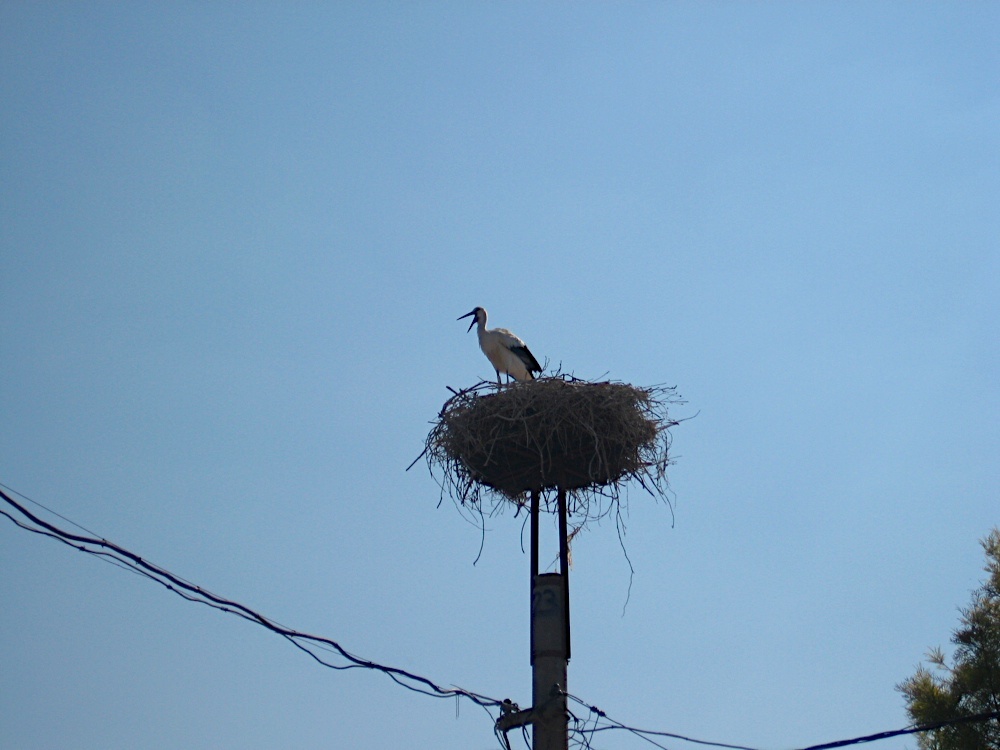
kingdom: Animalia
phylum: Chordata
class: Aves
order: Ciconiiformes
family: Ciconiidae
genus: Ciconia
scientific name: Ciconia ciconia
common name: White stork
